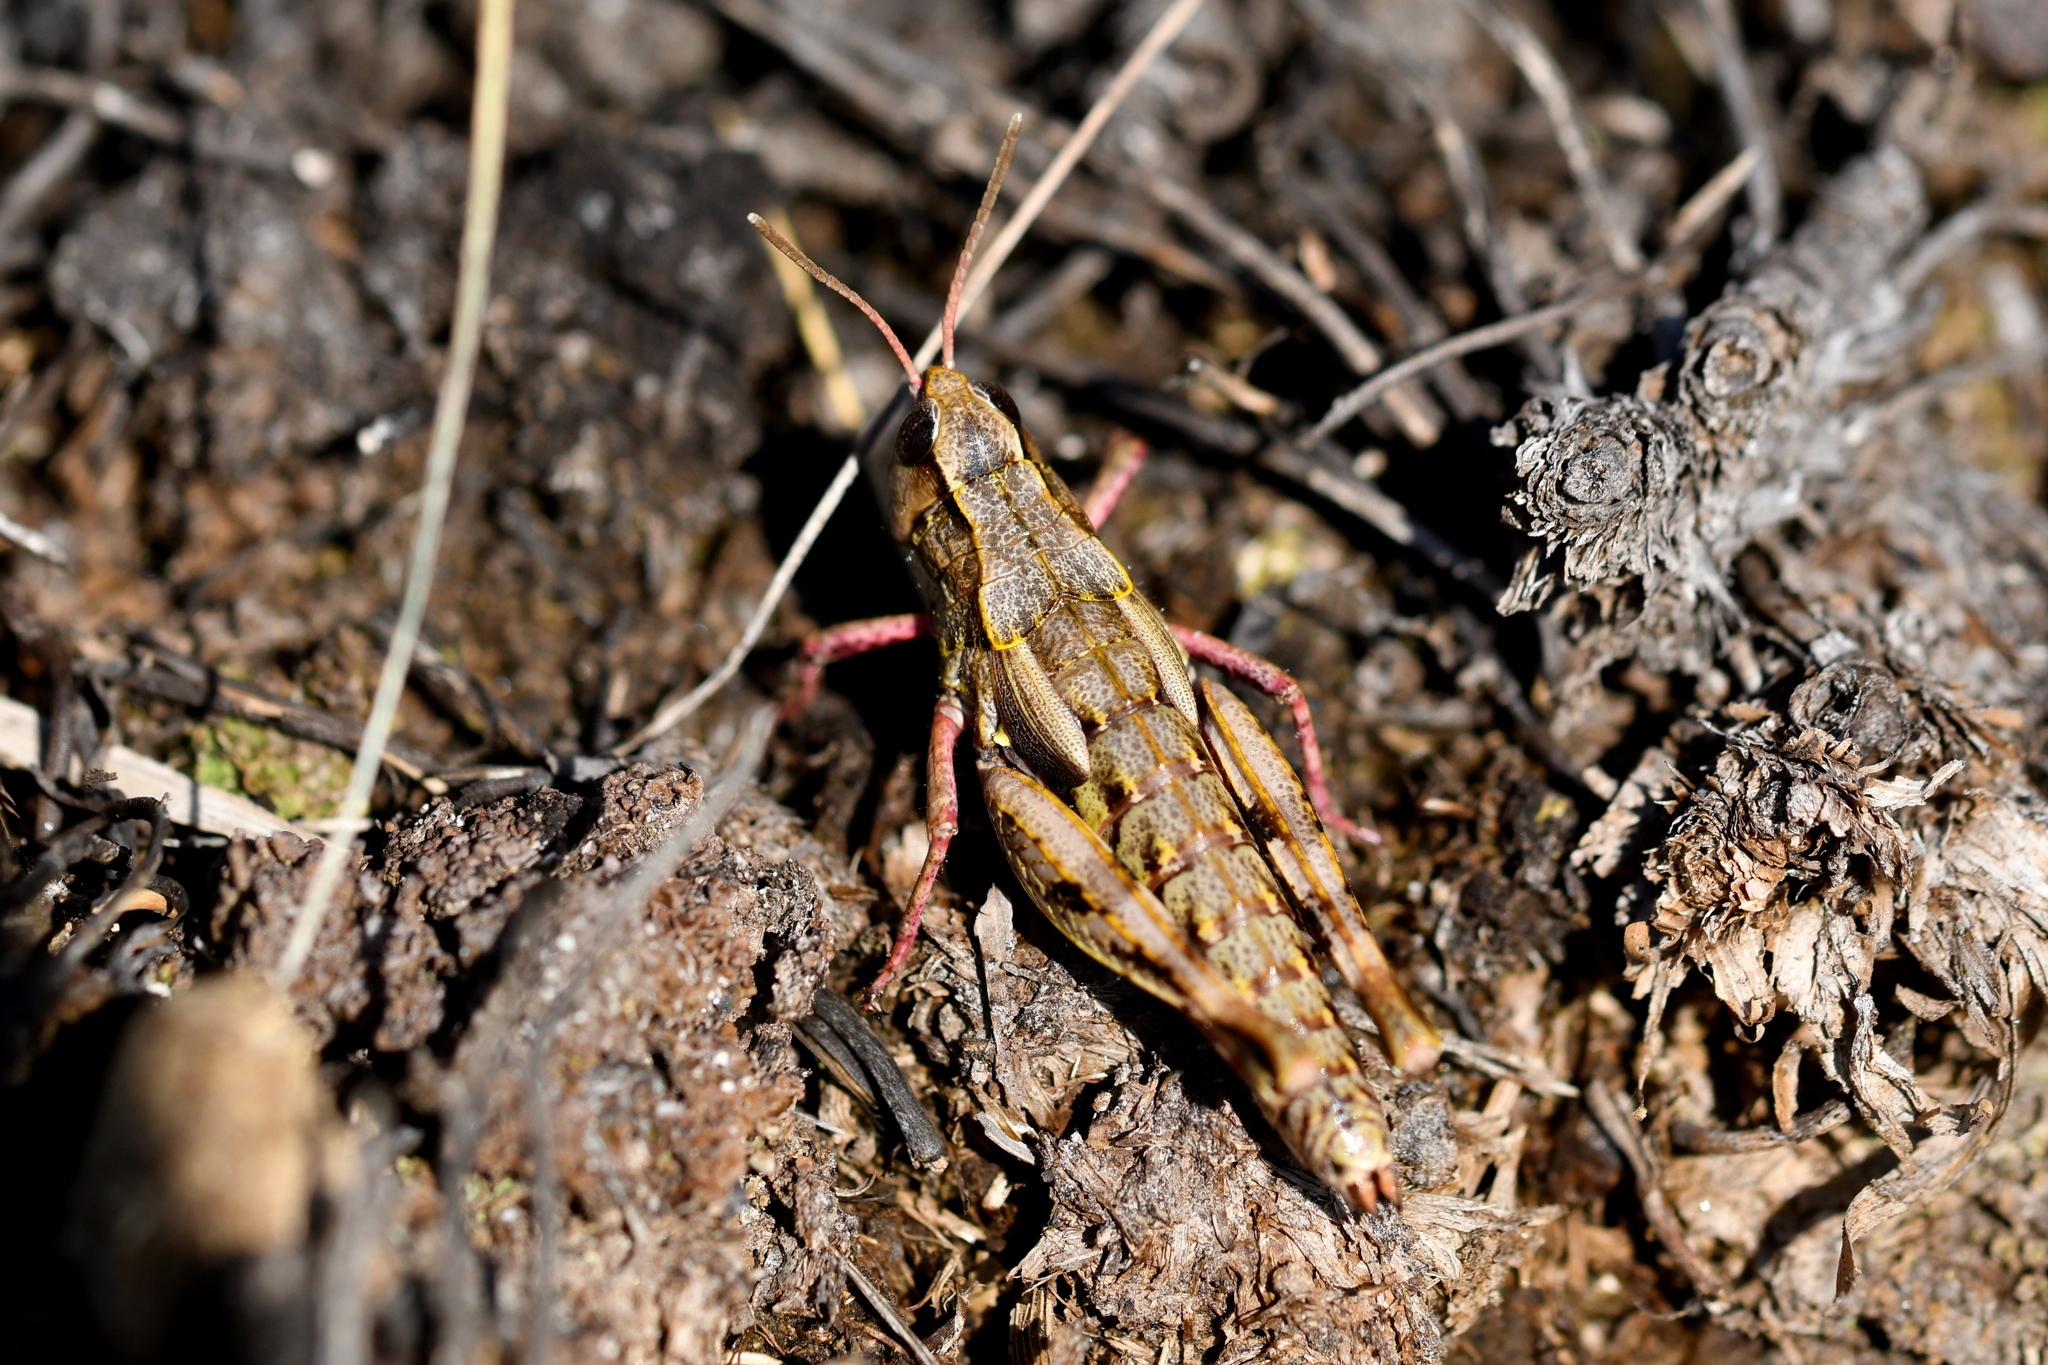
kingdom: Animalia
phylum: Arthropoda
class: Insecta
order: Orthoptera
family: Acrididae
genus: Sigaus
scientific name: Sigaus australis
